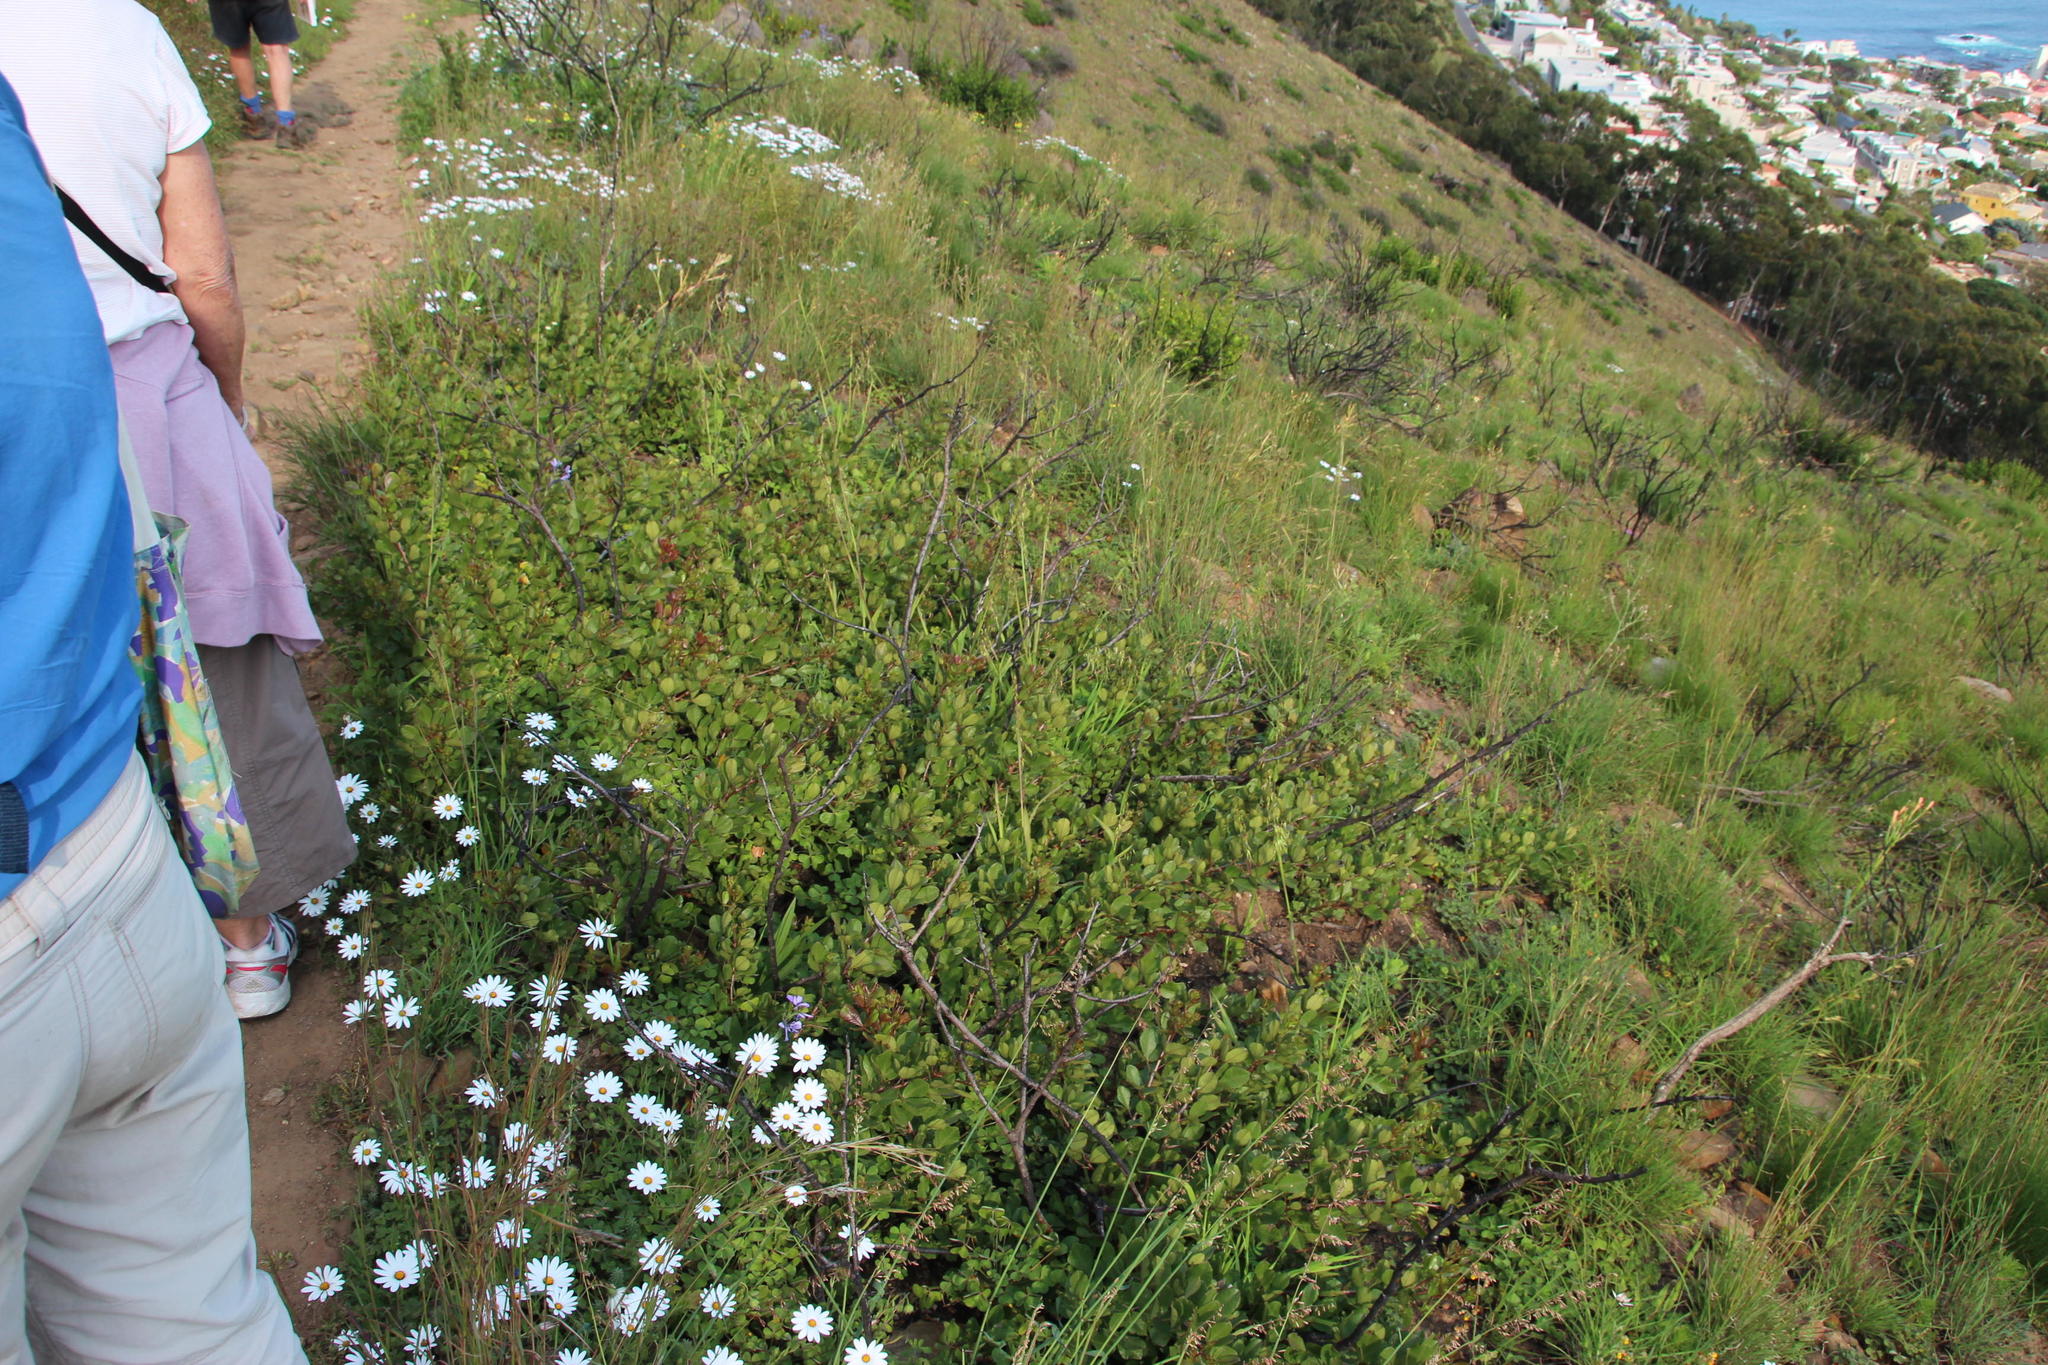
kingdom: Plantae
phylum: Tracheophyta
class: Magnoliopsida
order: Sapindales
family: Anacardiaceae
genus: Searsia
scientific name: Searsia laevigata
